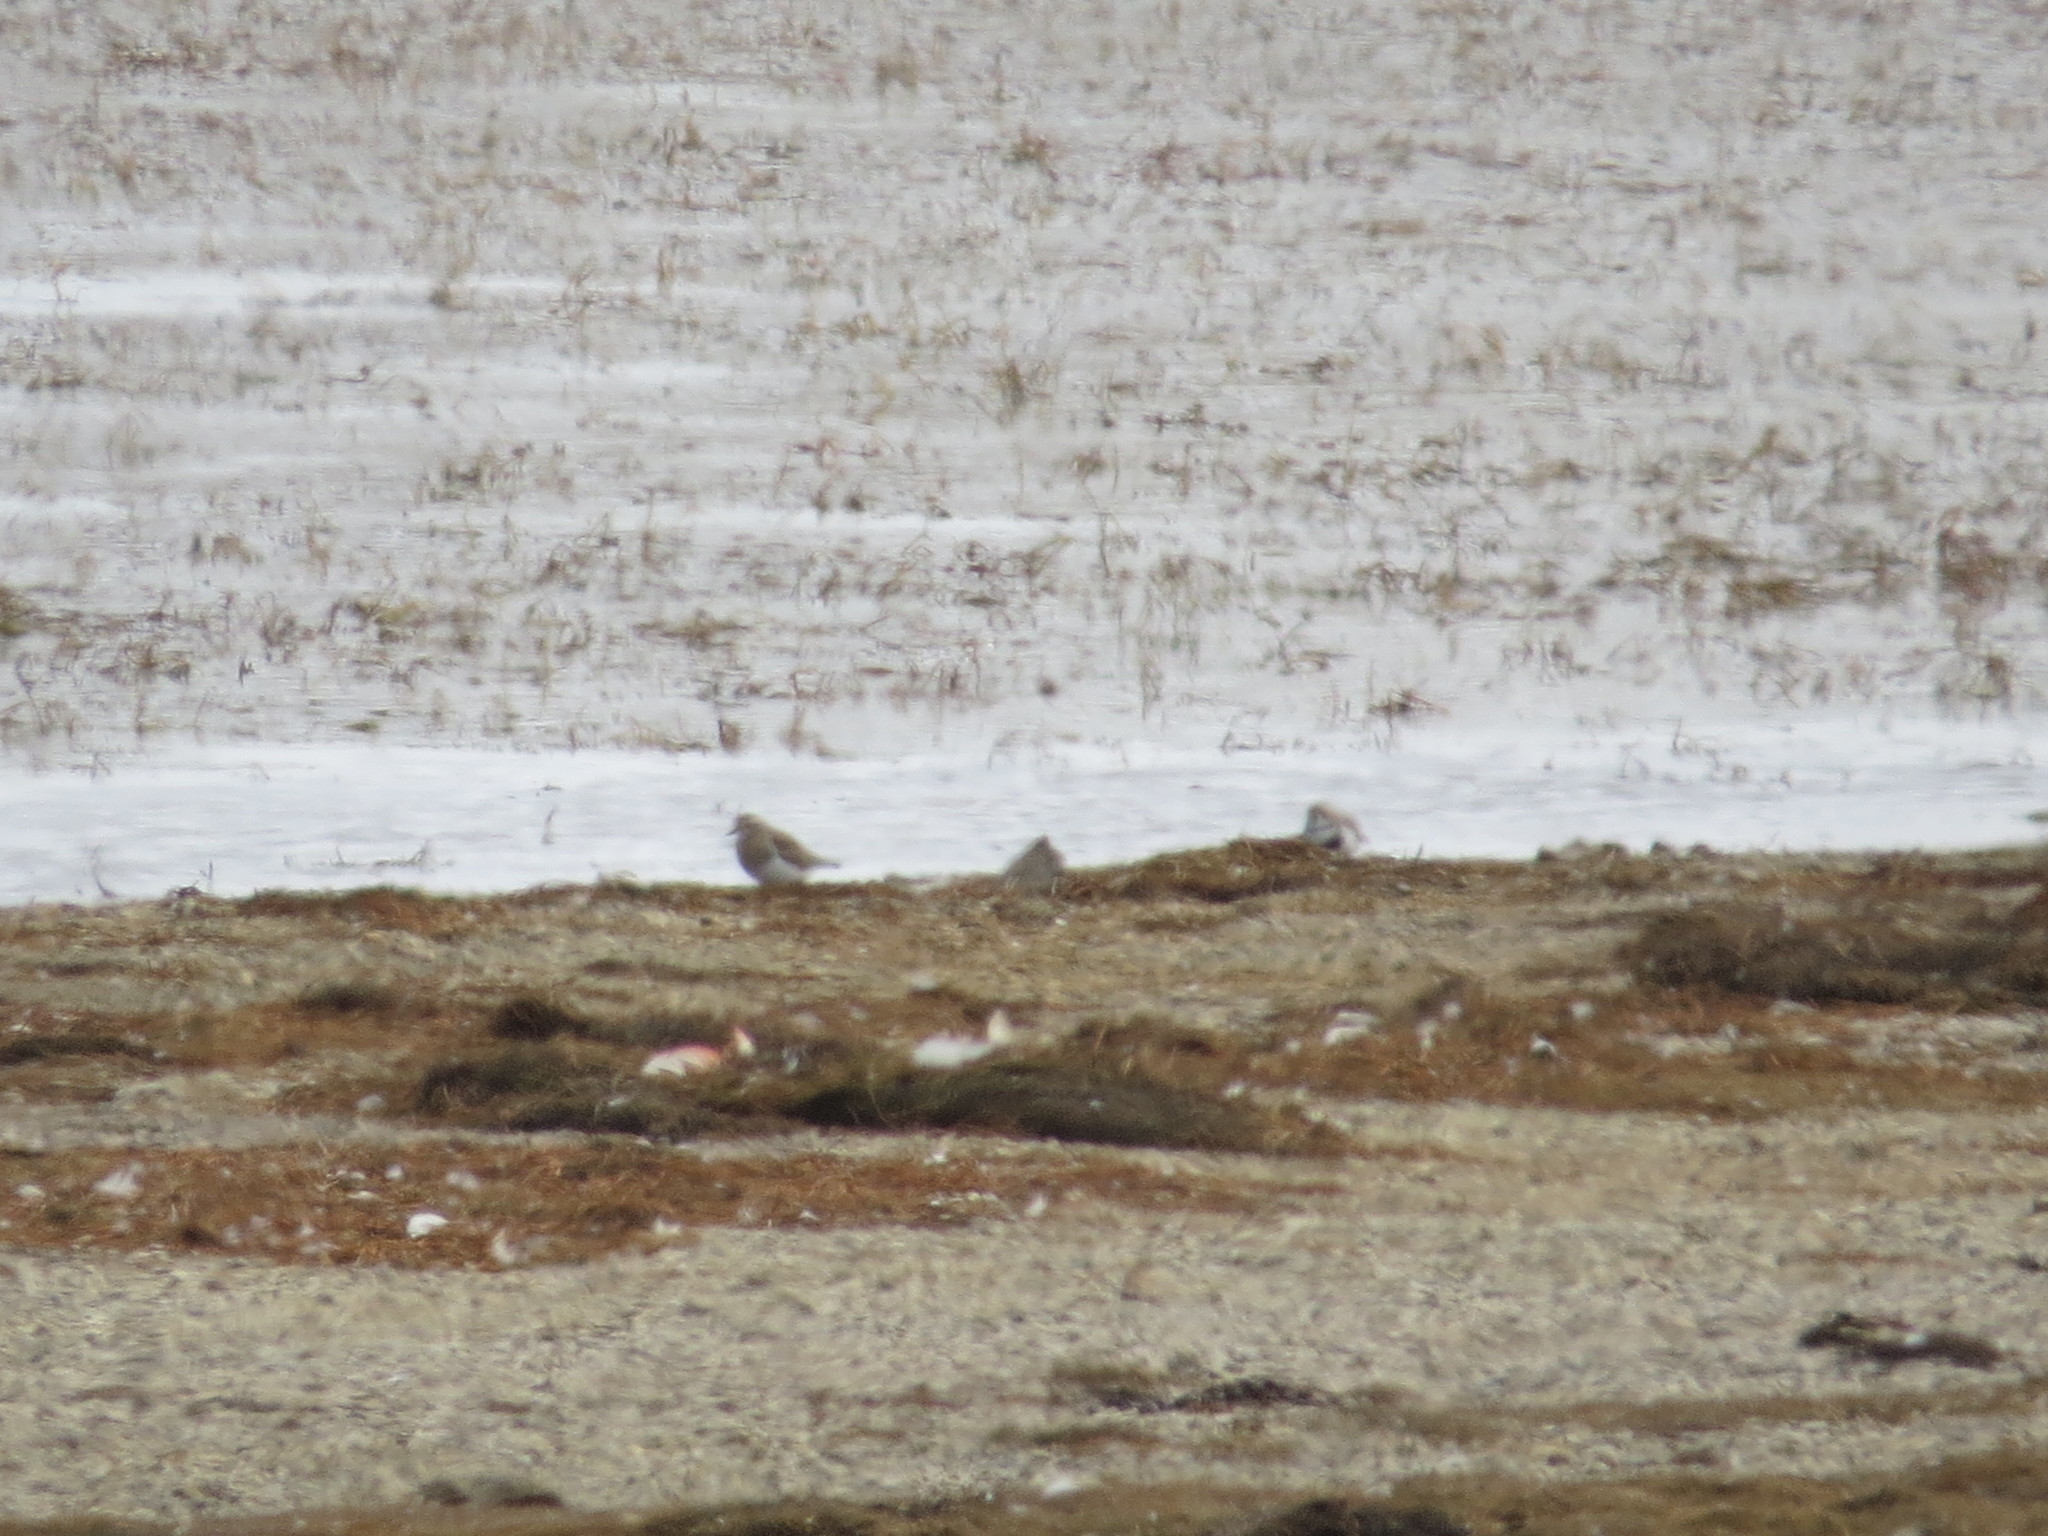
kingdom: Animalia
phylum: Chordata
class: Aves
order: Charadriiformes
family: Charadriidae
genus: Charadrius
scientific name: Charadrius modestus
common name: Rufous-chested plover
